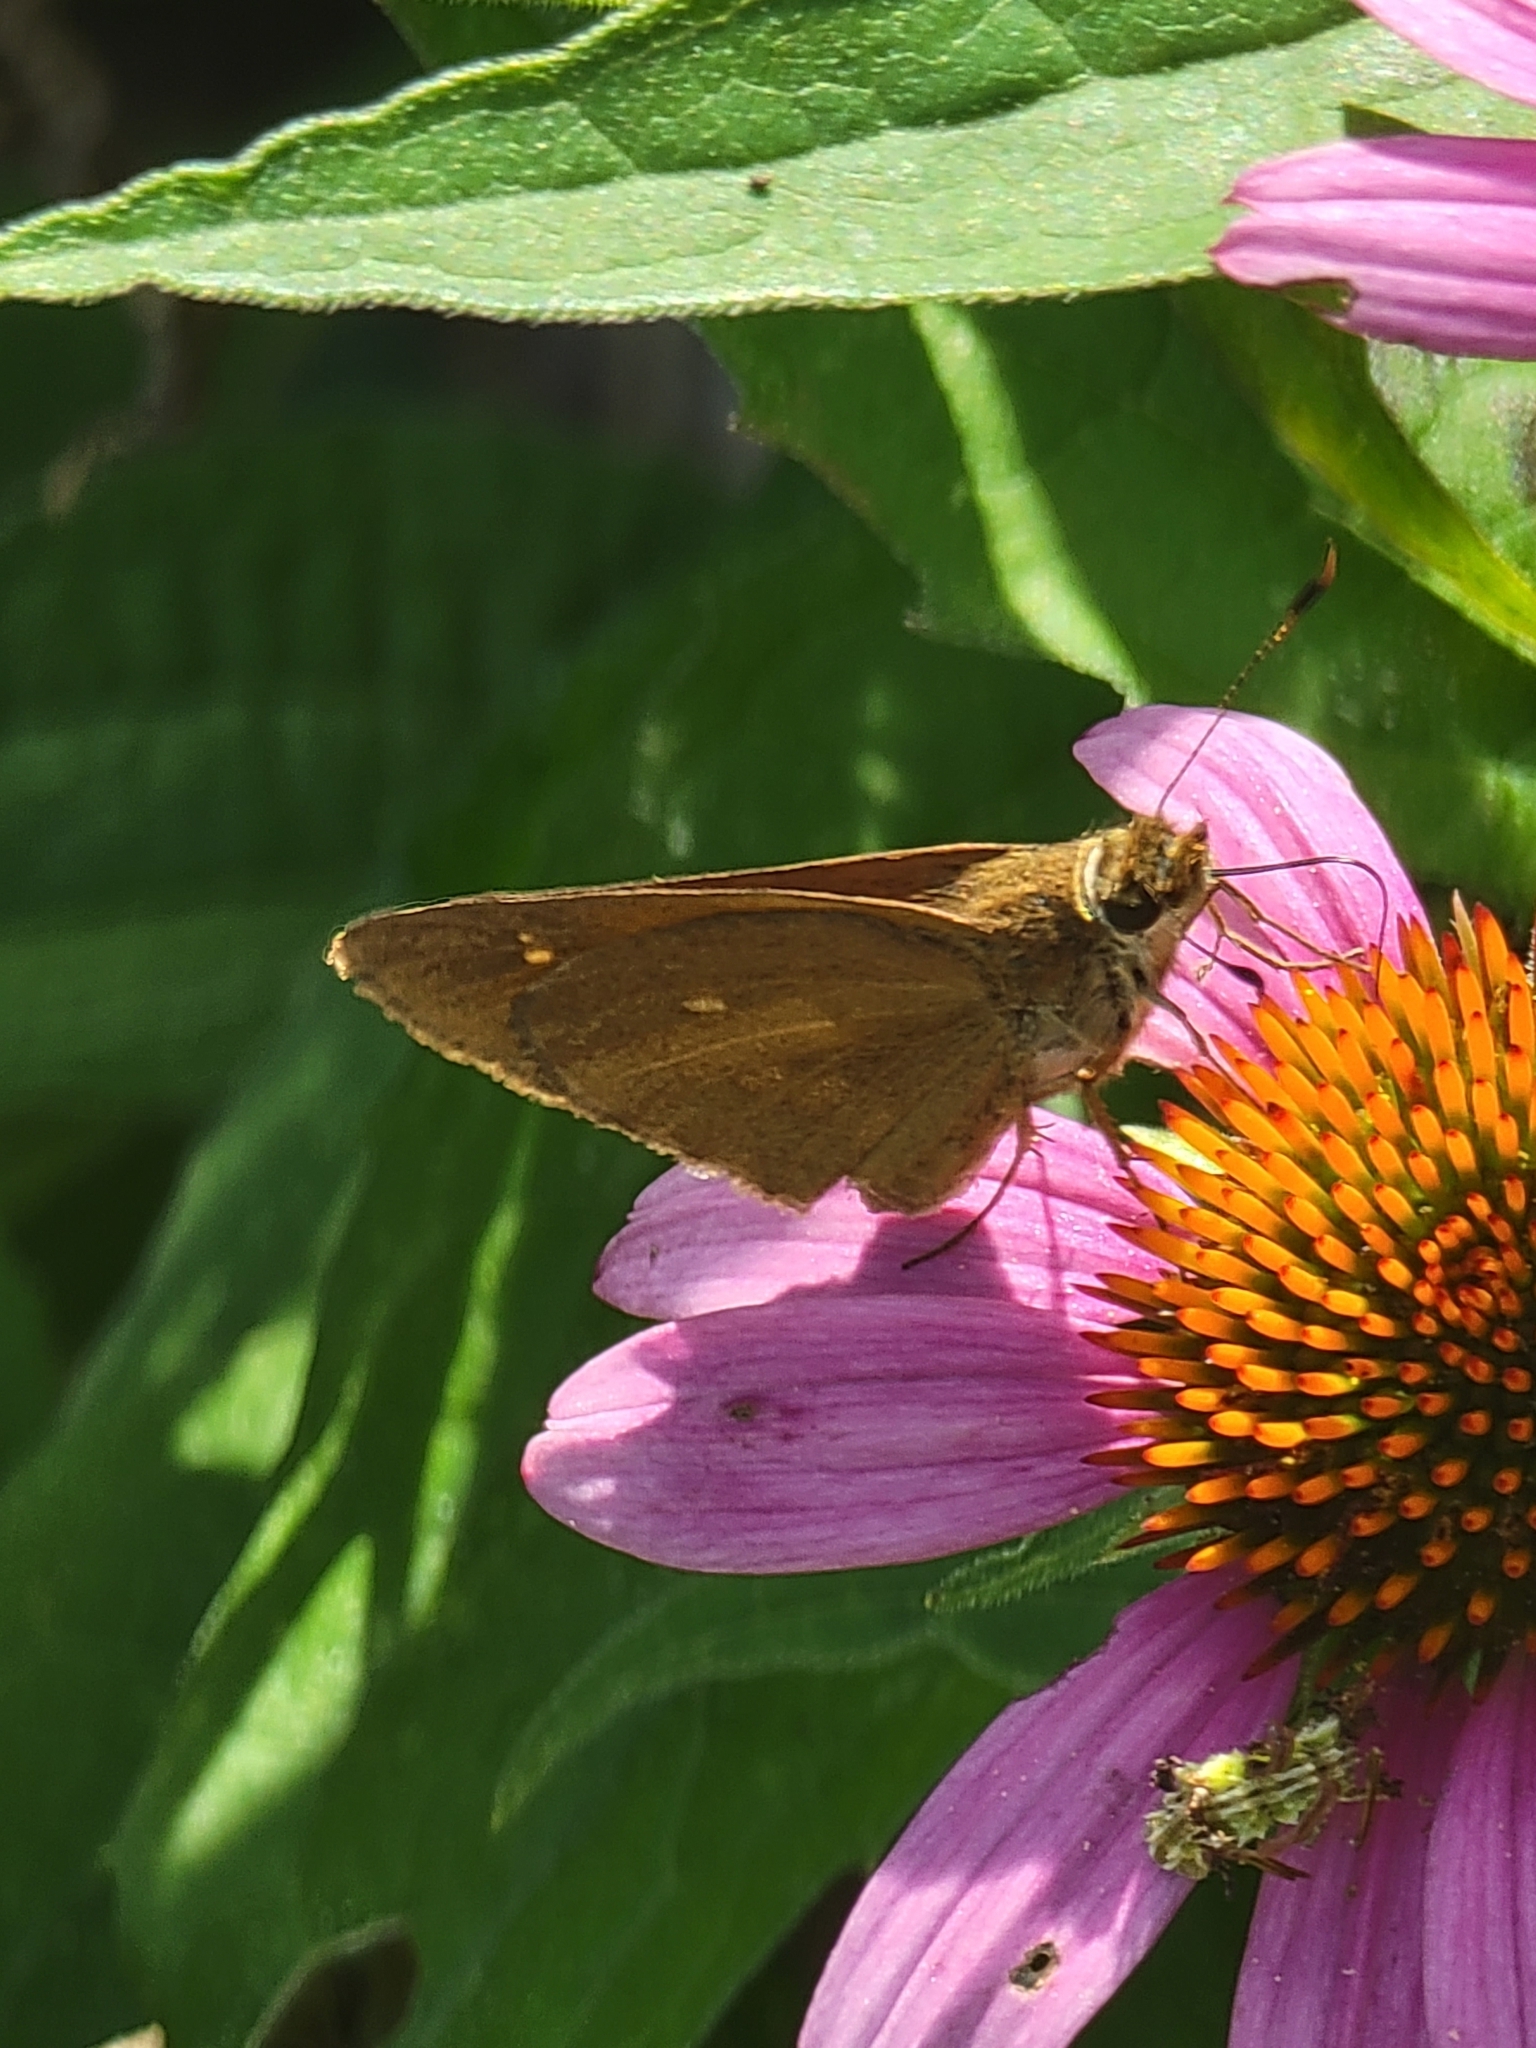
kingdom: Animalia
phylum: Arthropoda
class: Insecta
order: Lepidoptera
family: Hesperiidae
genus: Poanes
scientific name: Poanes viator
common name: Broad-winged skipper
